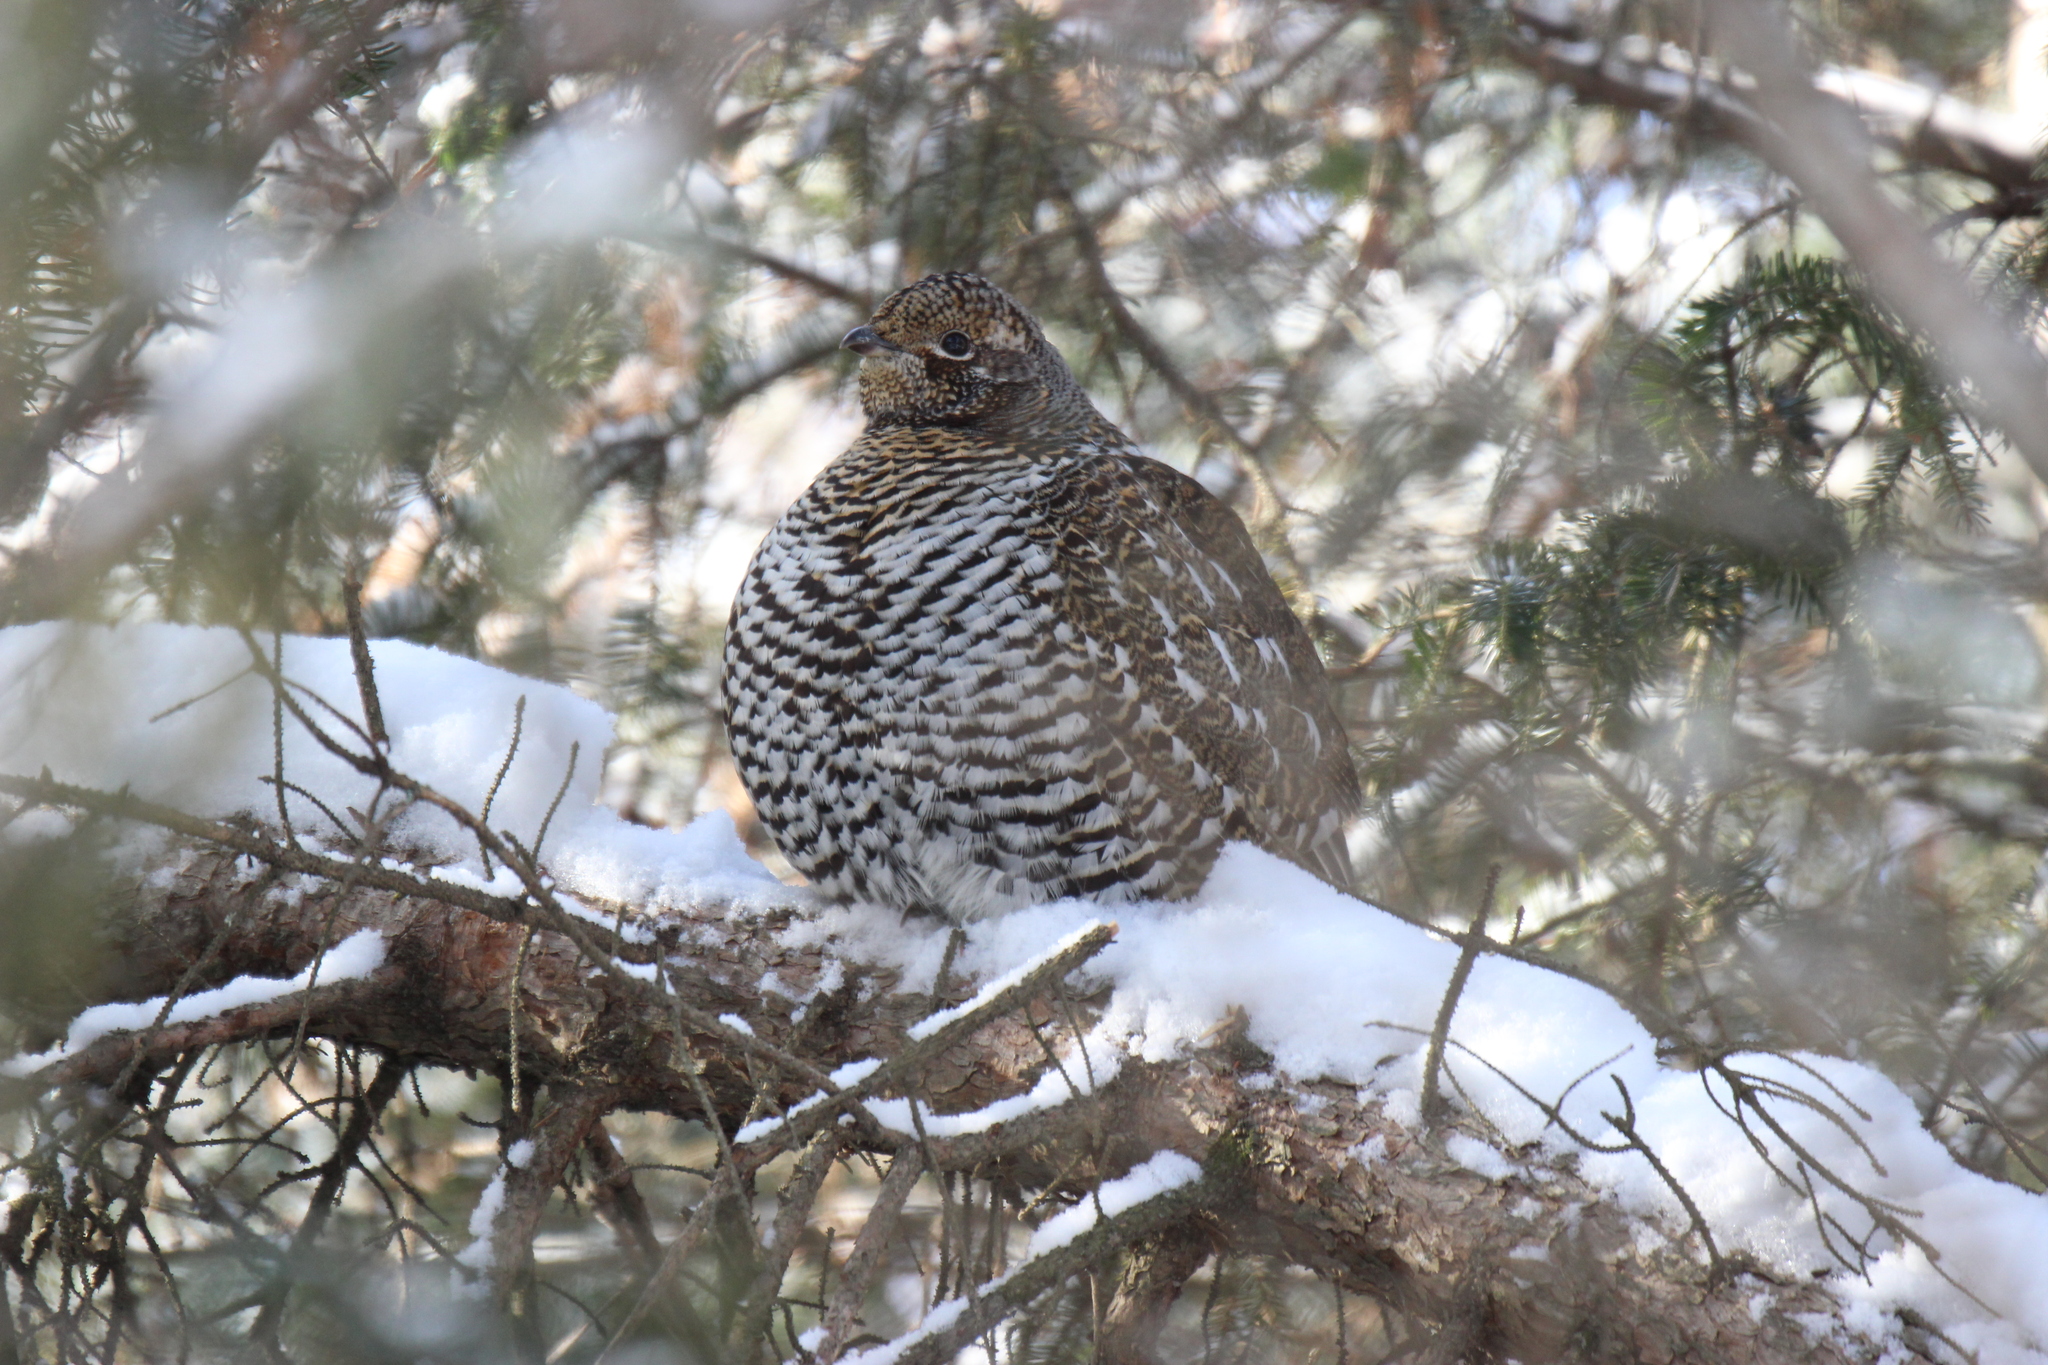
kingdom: Animalia
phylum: Chordata
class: Aves
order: Galliformes
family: Phasianidae
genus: Canachites
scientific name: Canachites canadensis
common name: Spruce grouse
